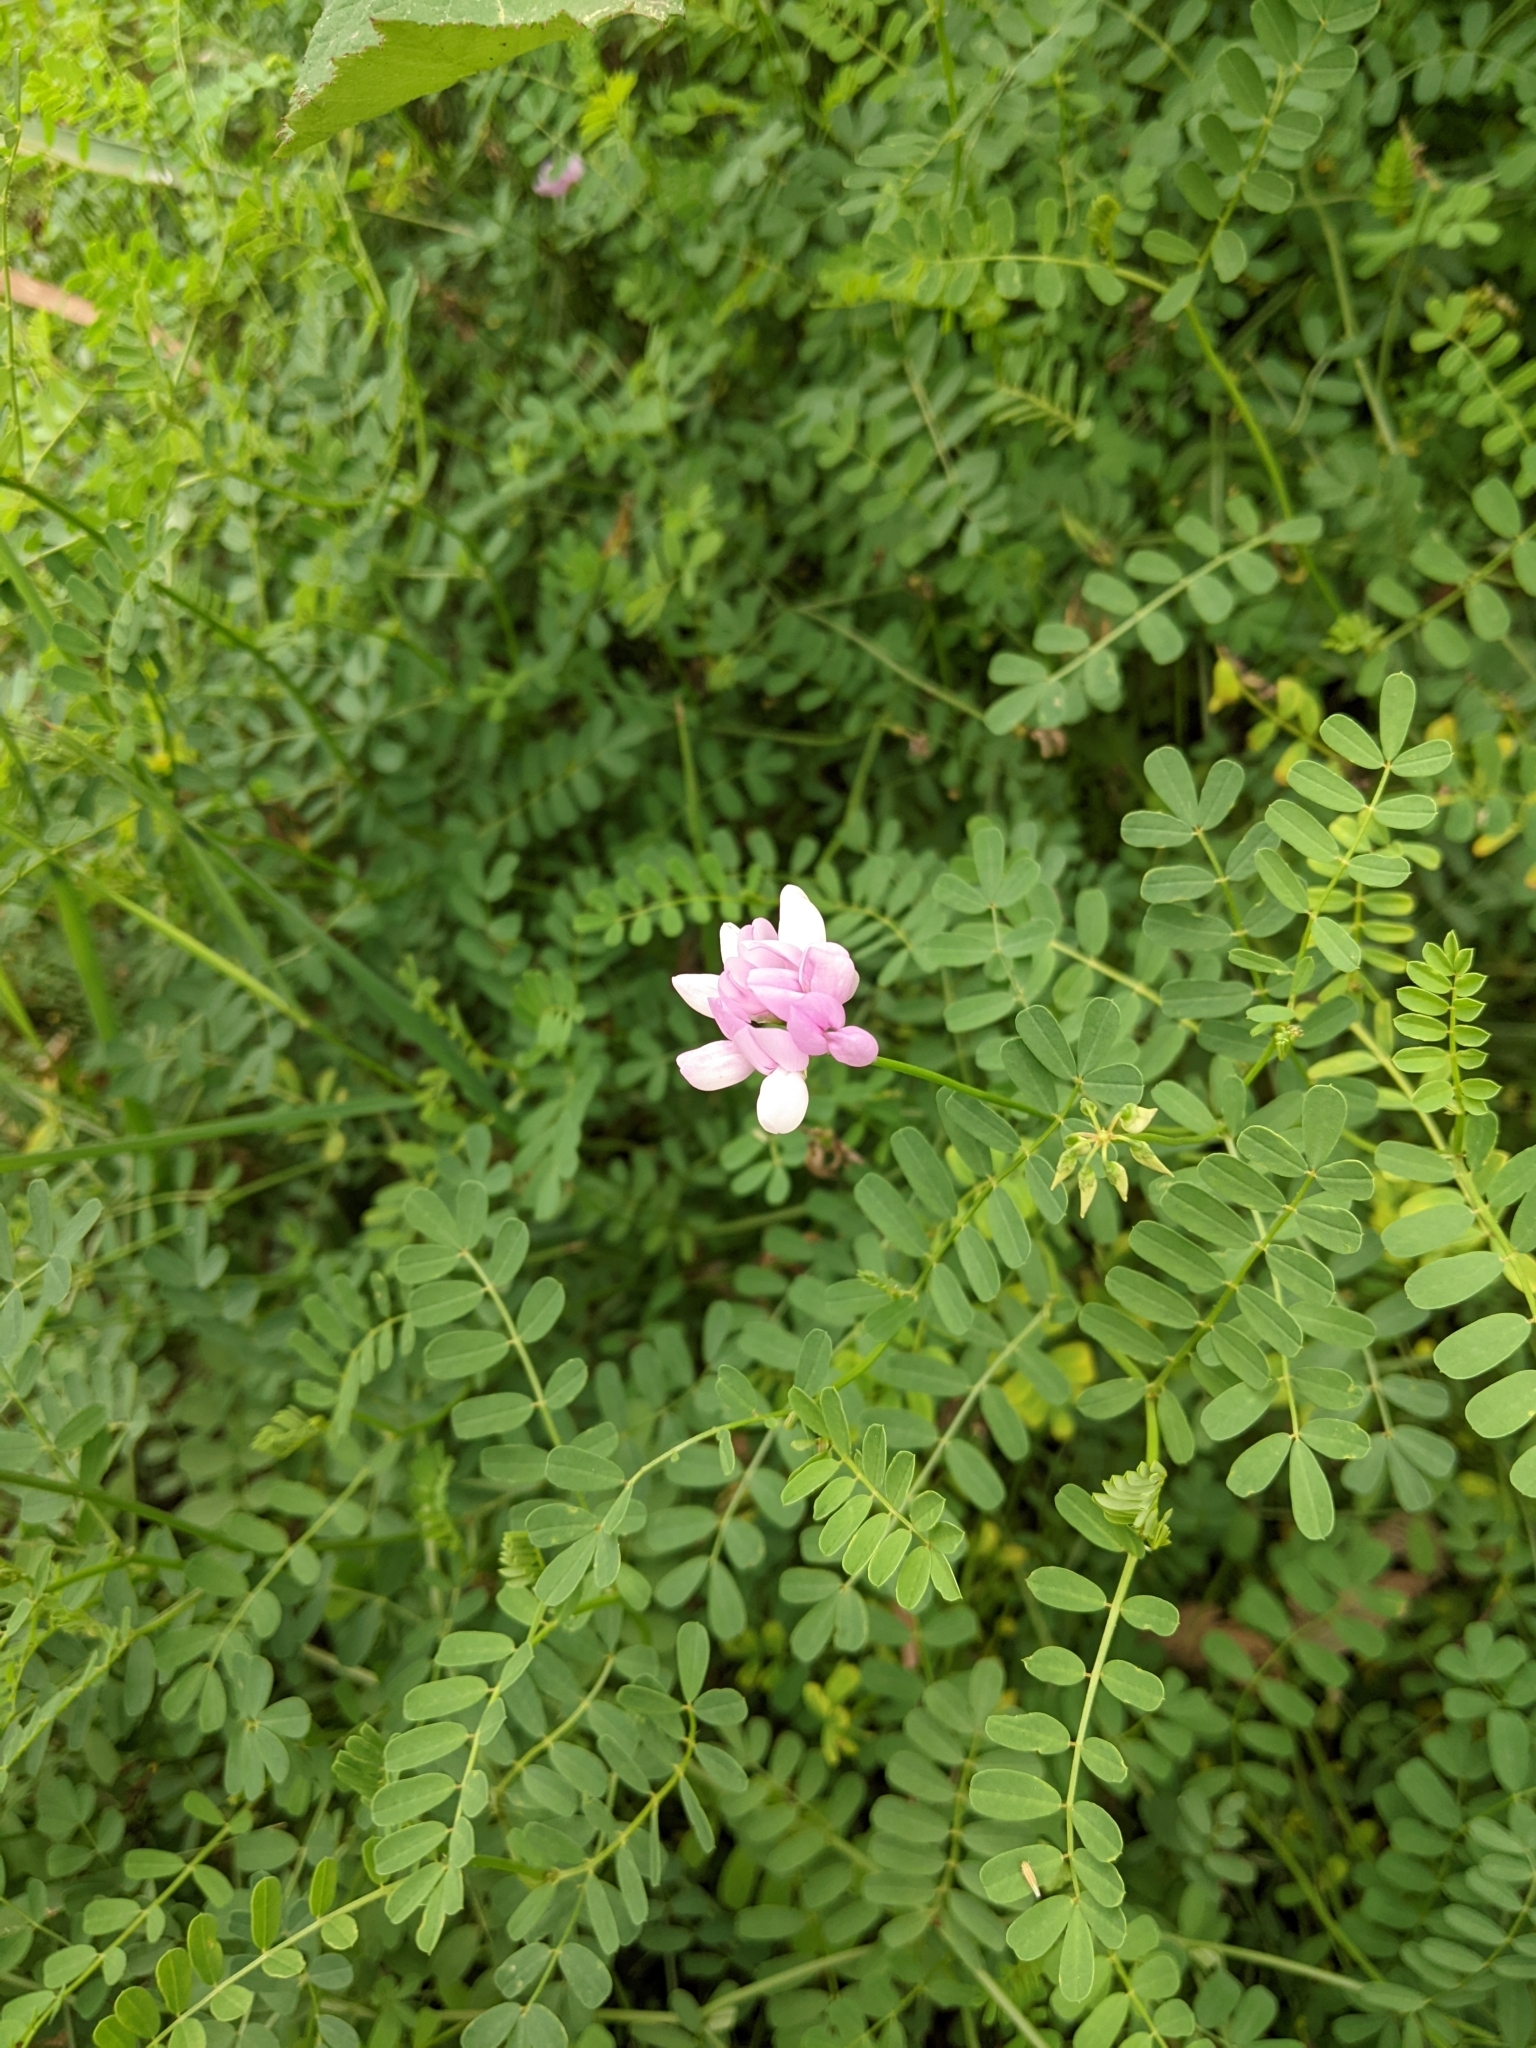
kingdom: Plantae
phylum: Tracheophyta
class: Magnoliopsida
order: Fabales
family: Fabaceae
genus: Coronilla
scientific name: Coronilla varia
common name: Crownvetch
